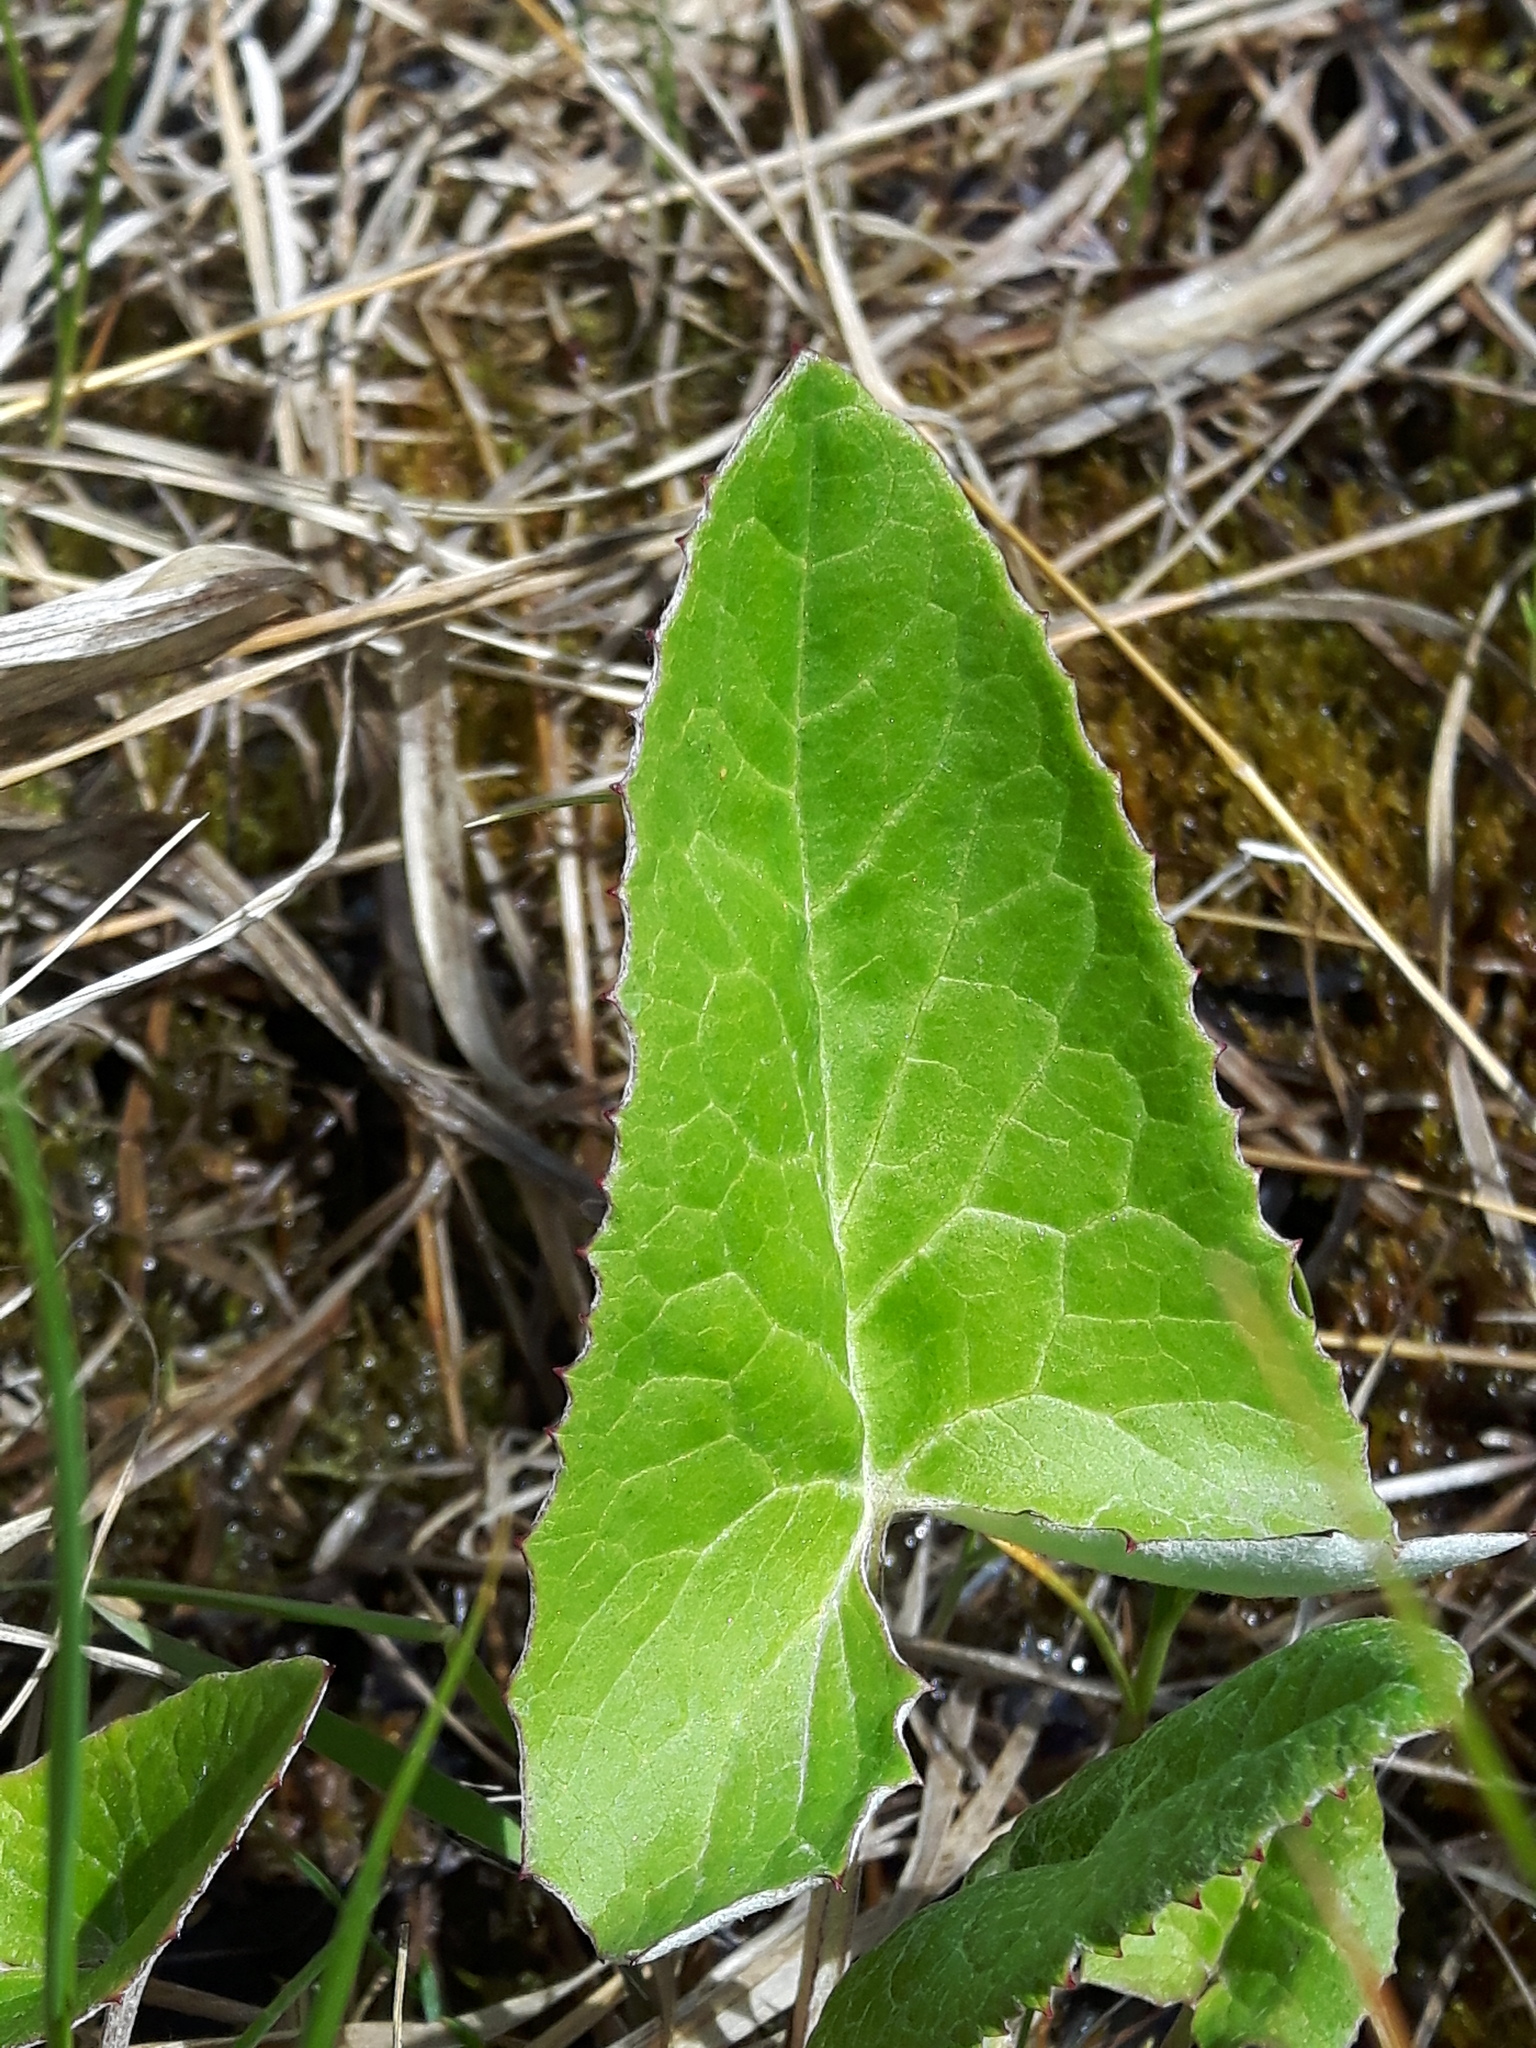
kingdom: Plantae
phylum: Tracheophyta
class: Magnoliopsida
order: Asterales
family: Asteraceae
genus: Petasites
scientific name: Petasites frigidus
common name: Arctic butterbur
